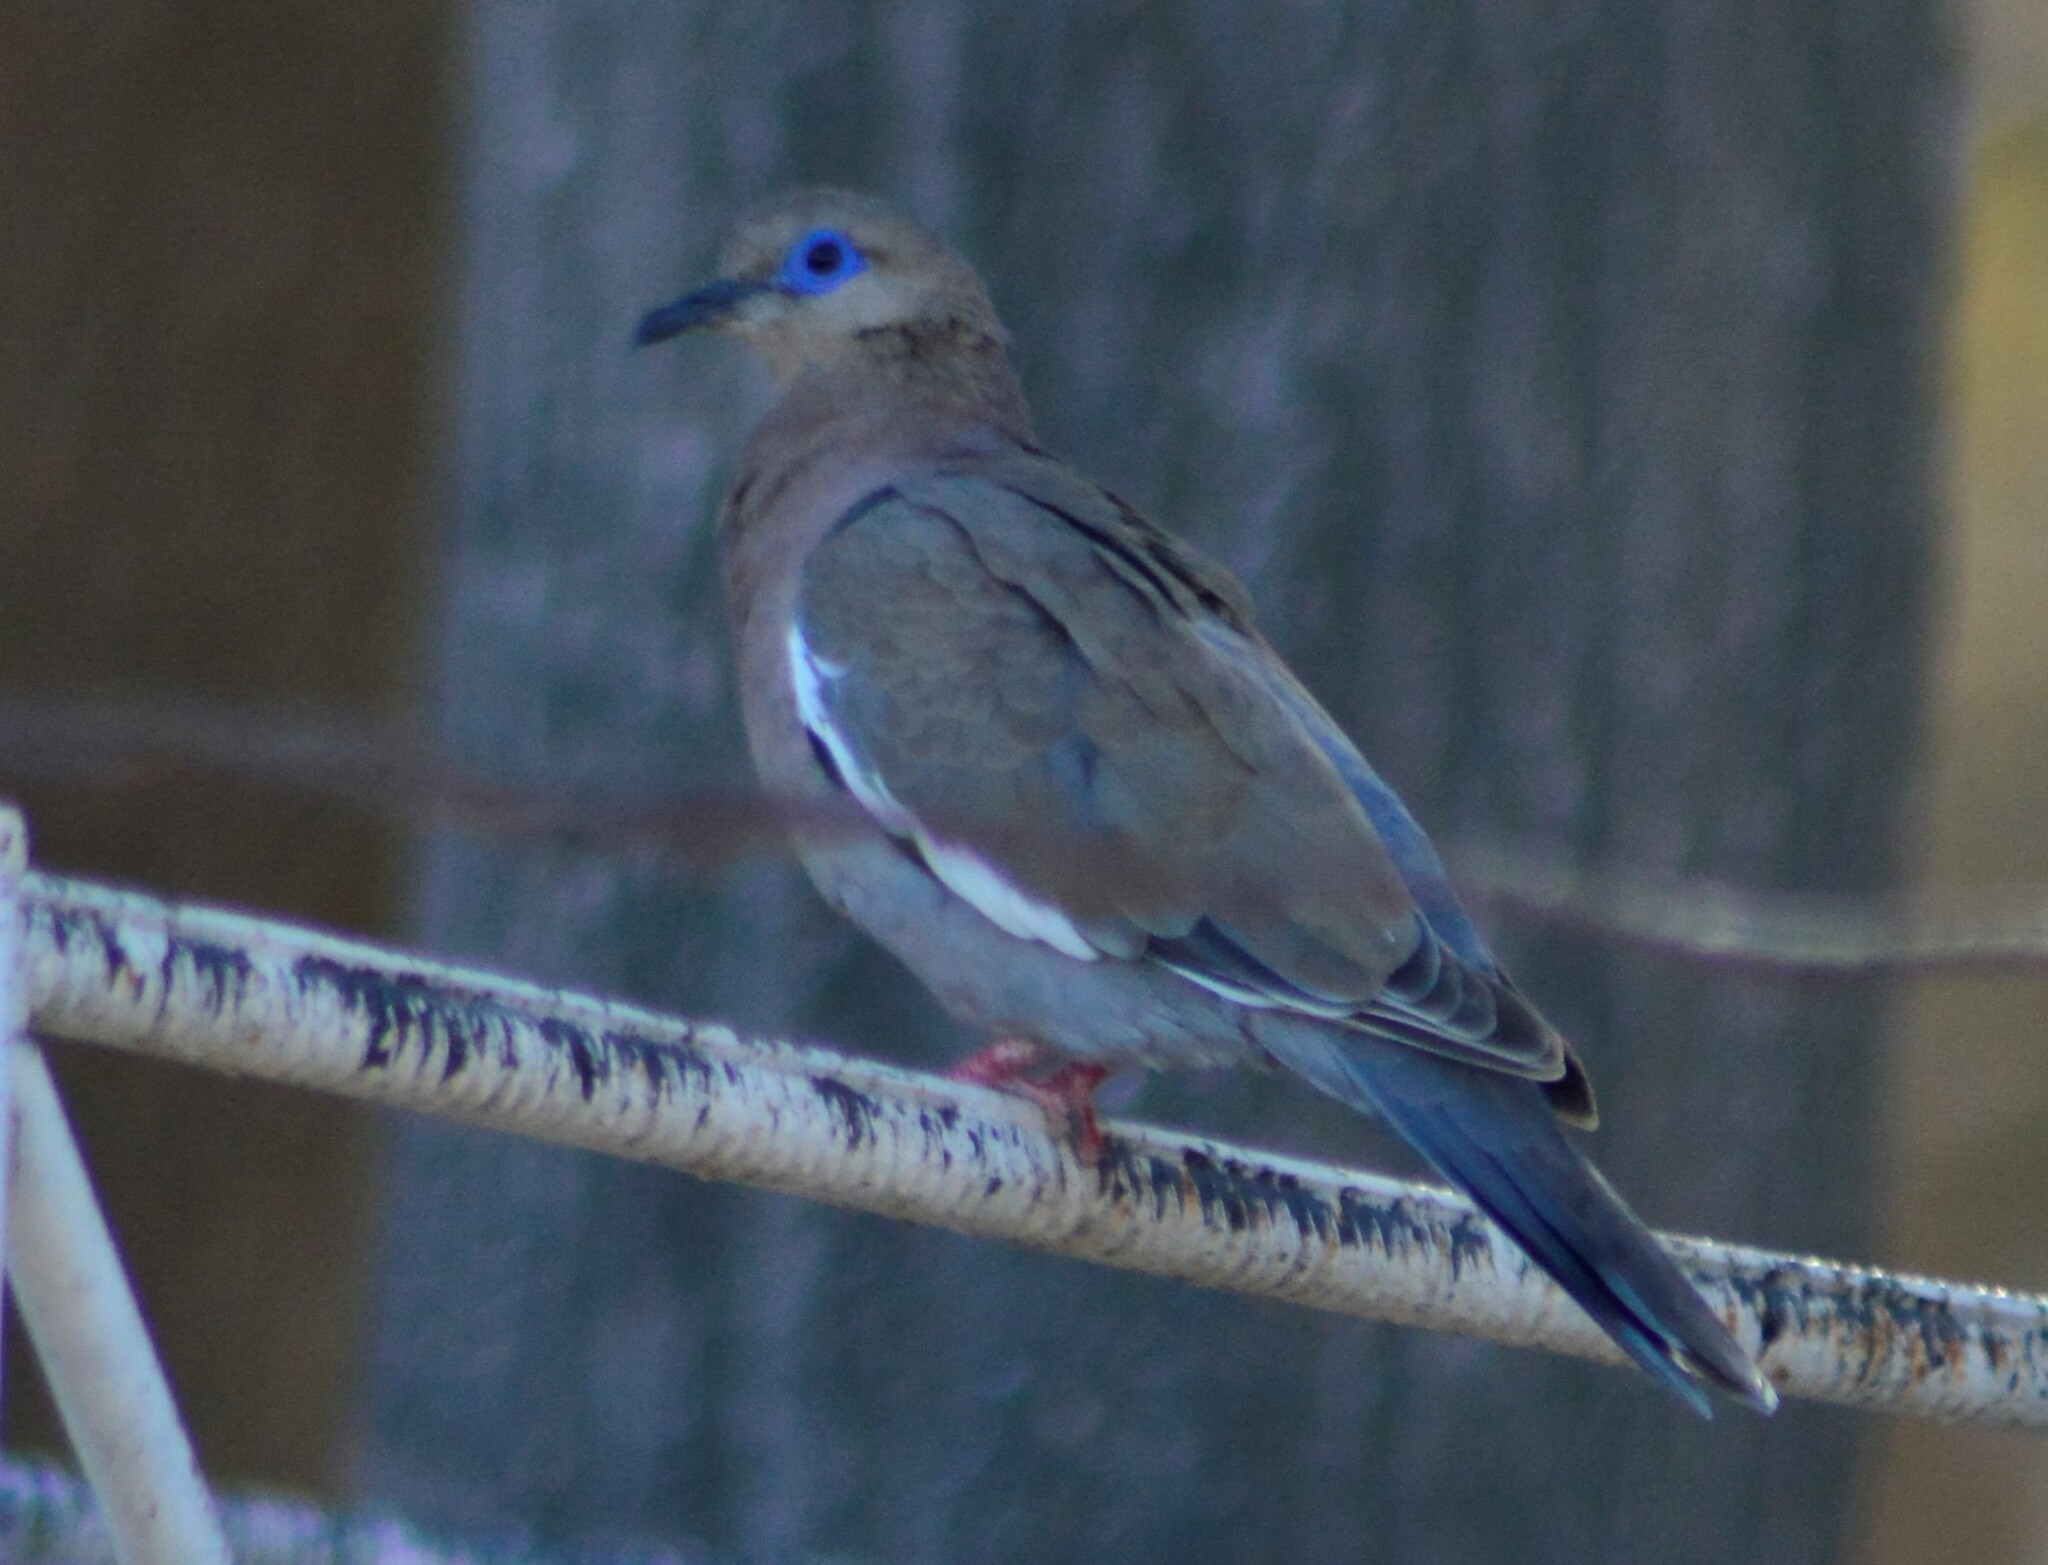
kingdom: Animalia
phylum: Chordata
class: Aves
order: Columbiformes
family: Columbidae
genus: Zenaida
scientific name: Zenaida meloda
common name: West peruvian dove
